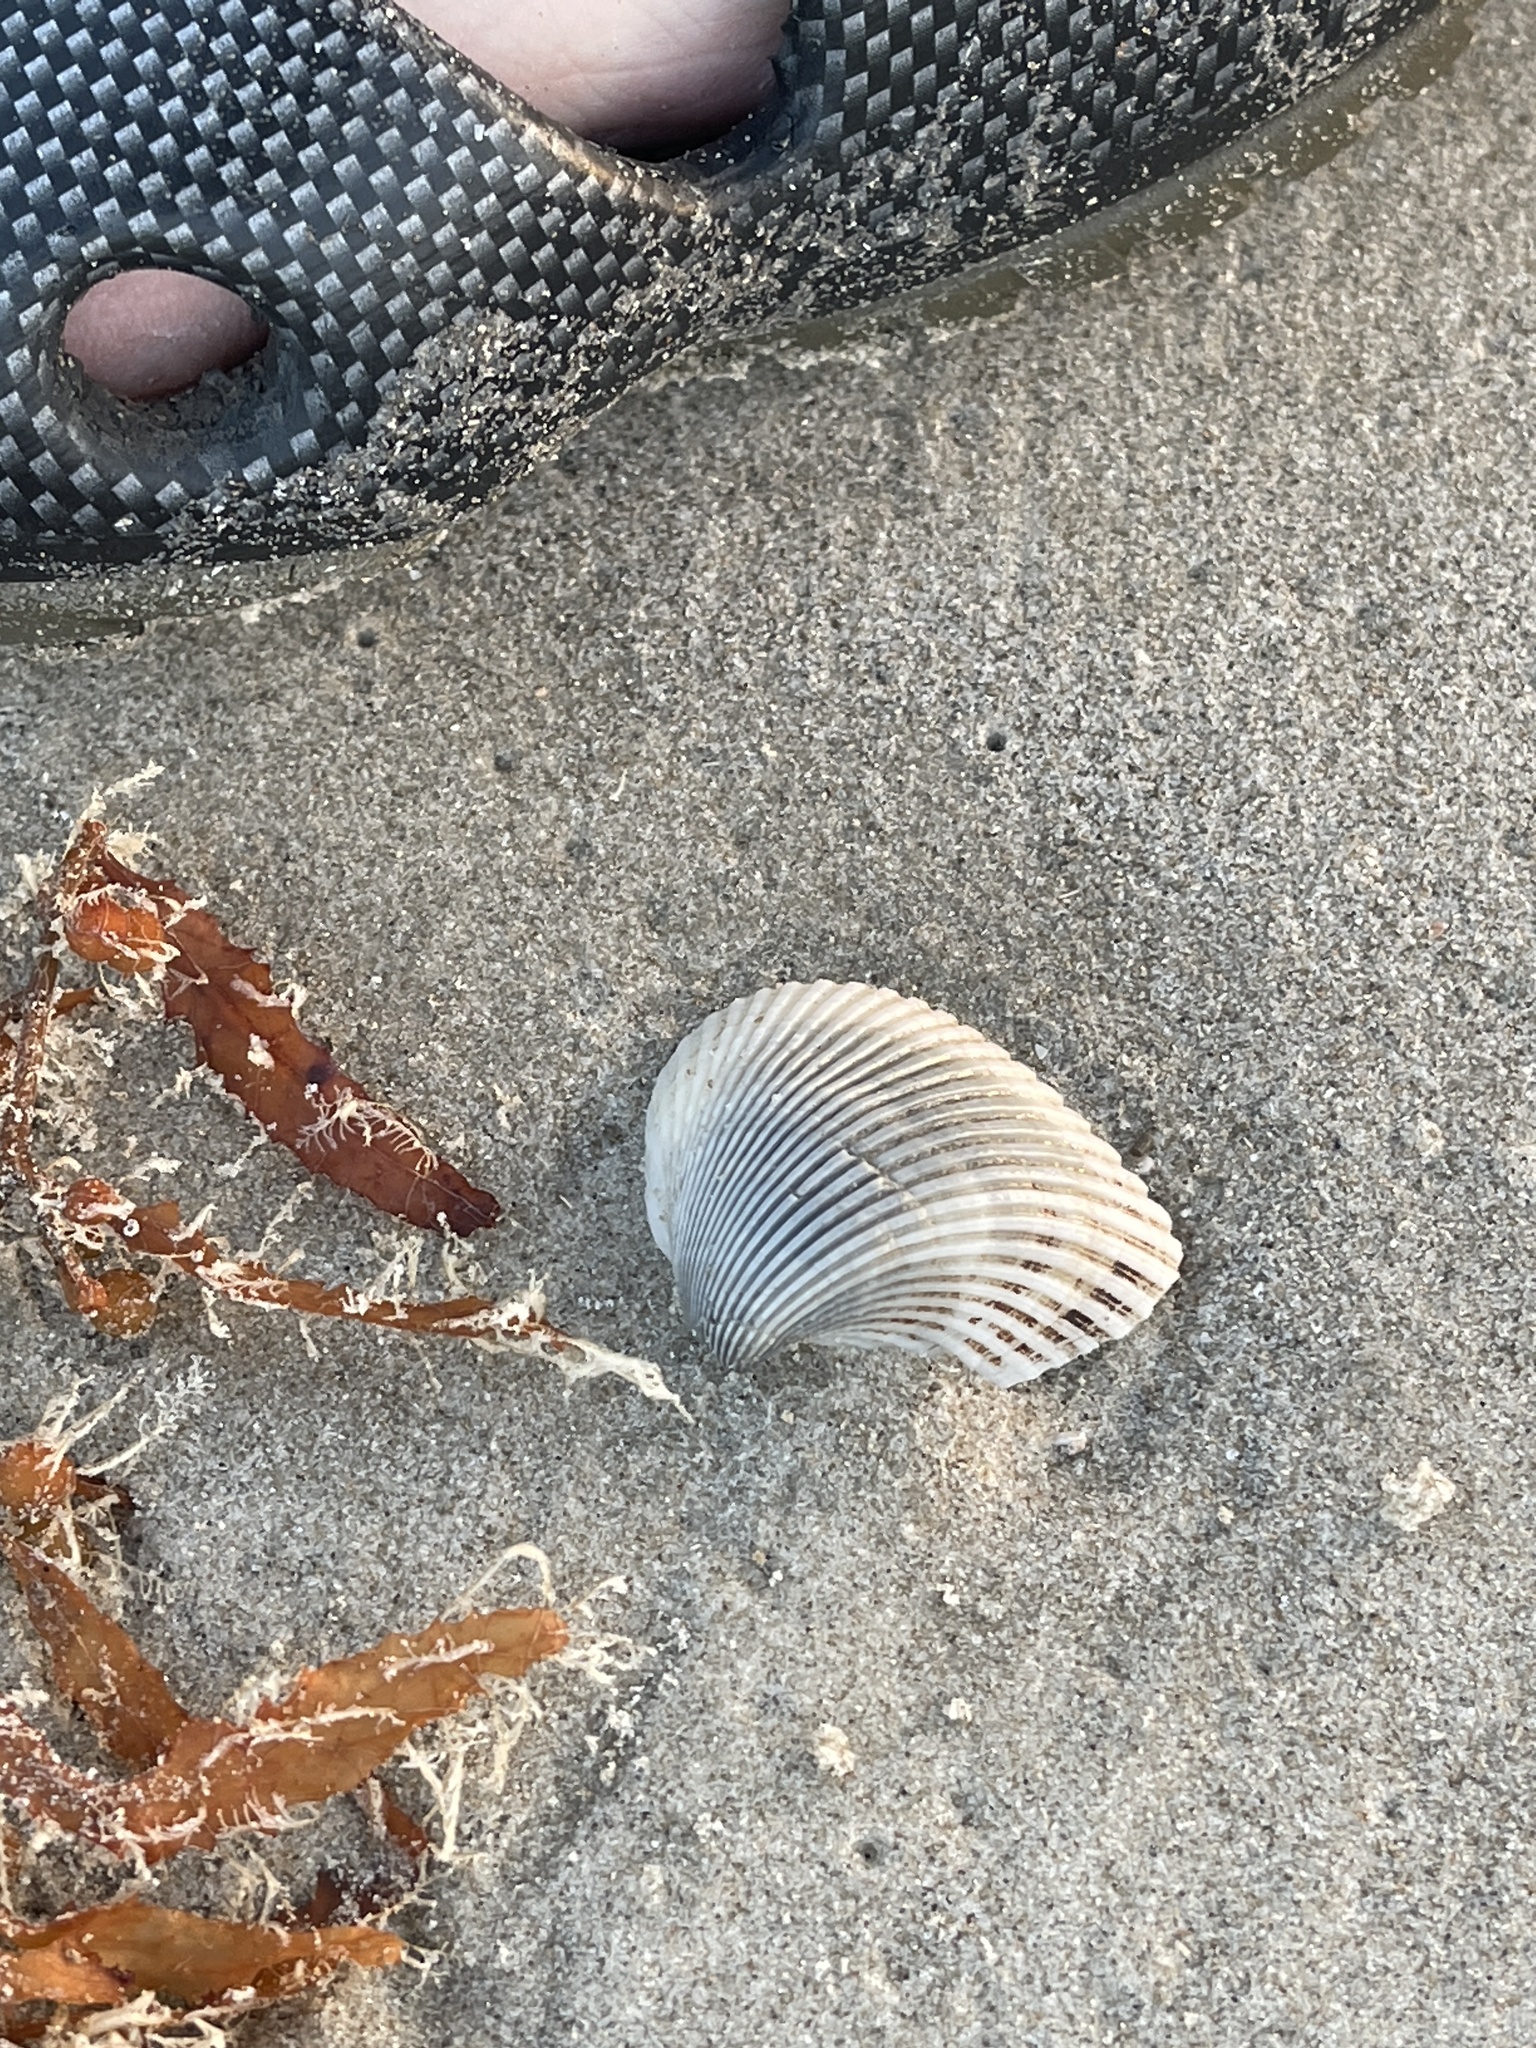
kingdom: Animalia
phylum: Mollusca
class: Bivalvia
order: Arcida
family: Noetiidae
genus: Noetia
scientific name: Noetia ponderosa
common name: Ponderous ark
